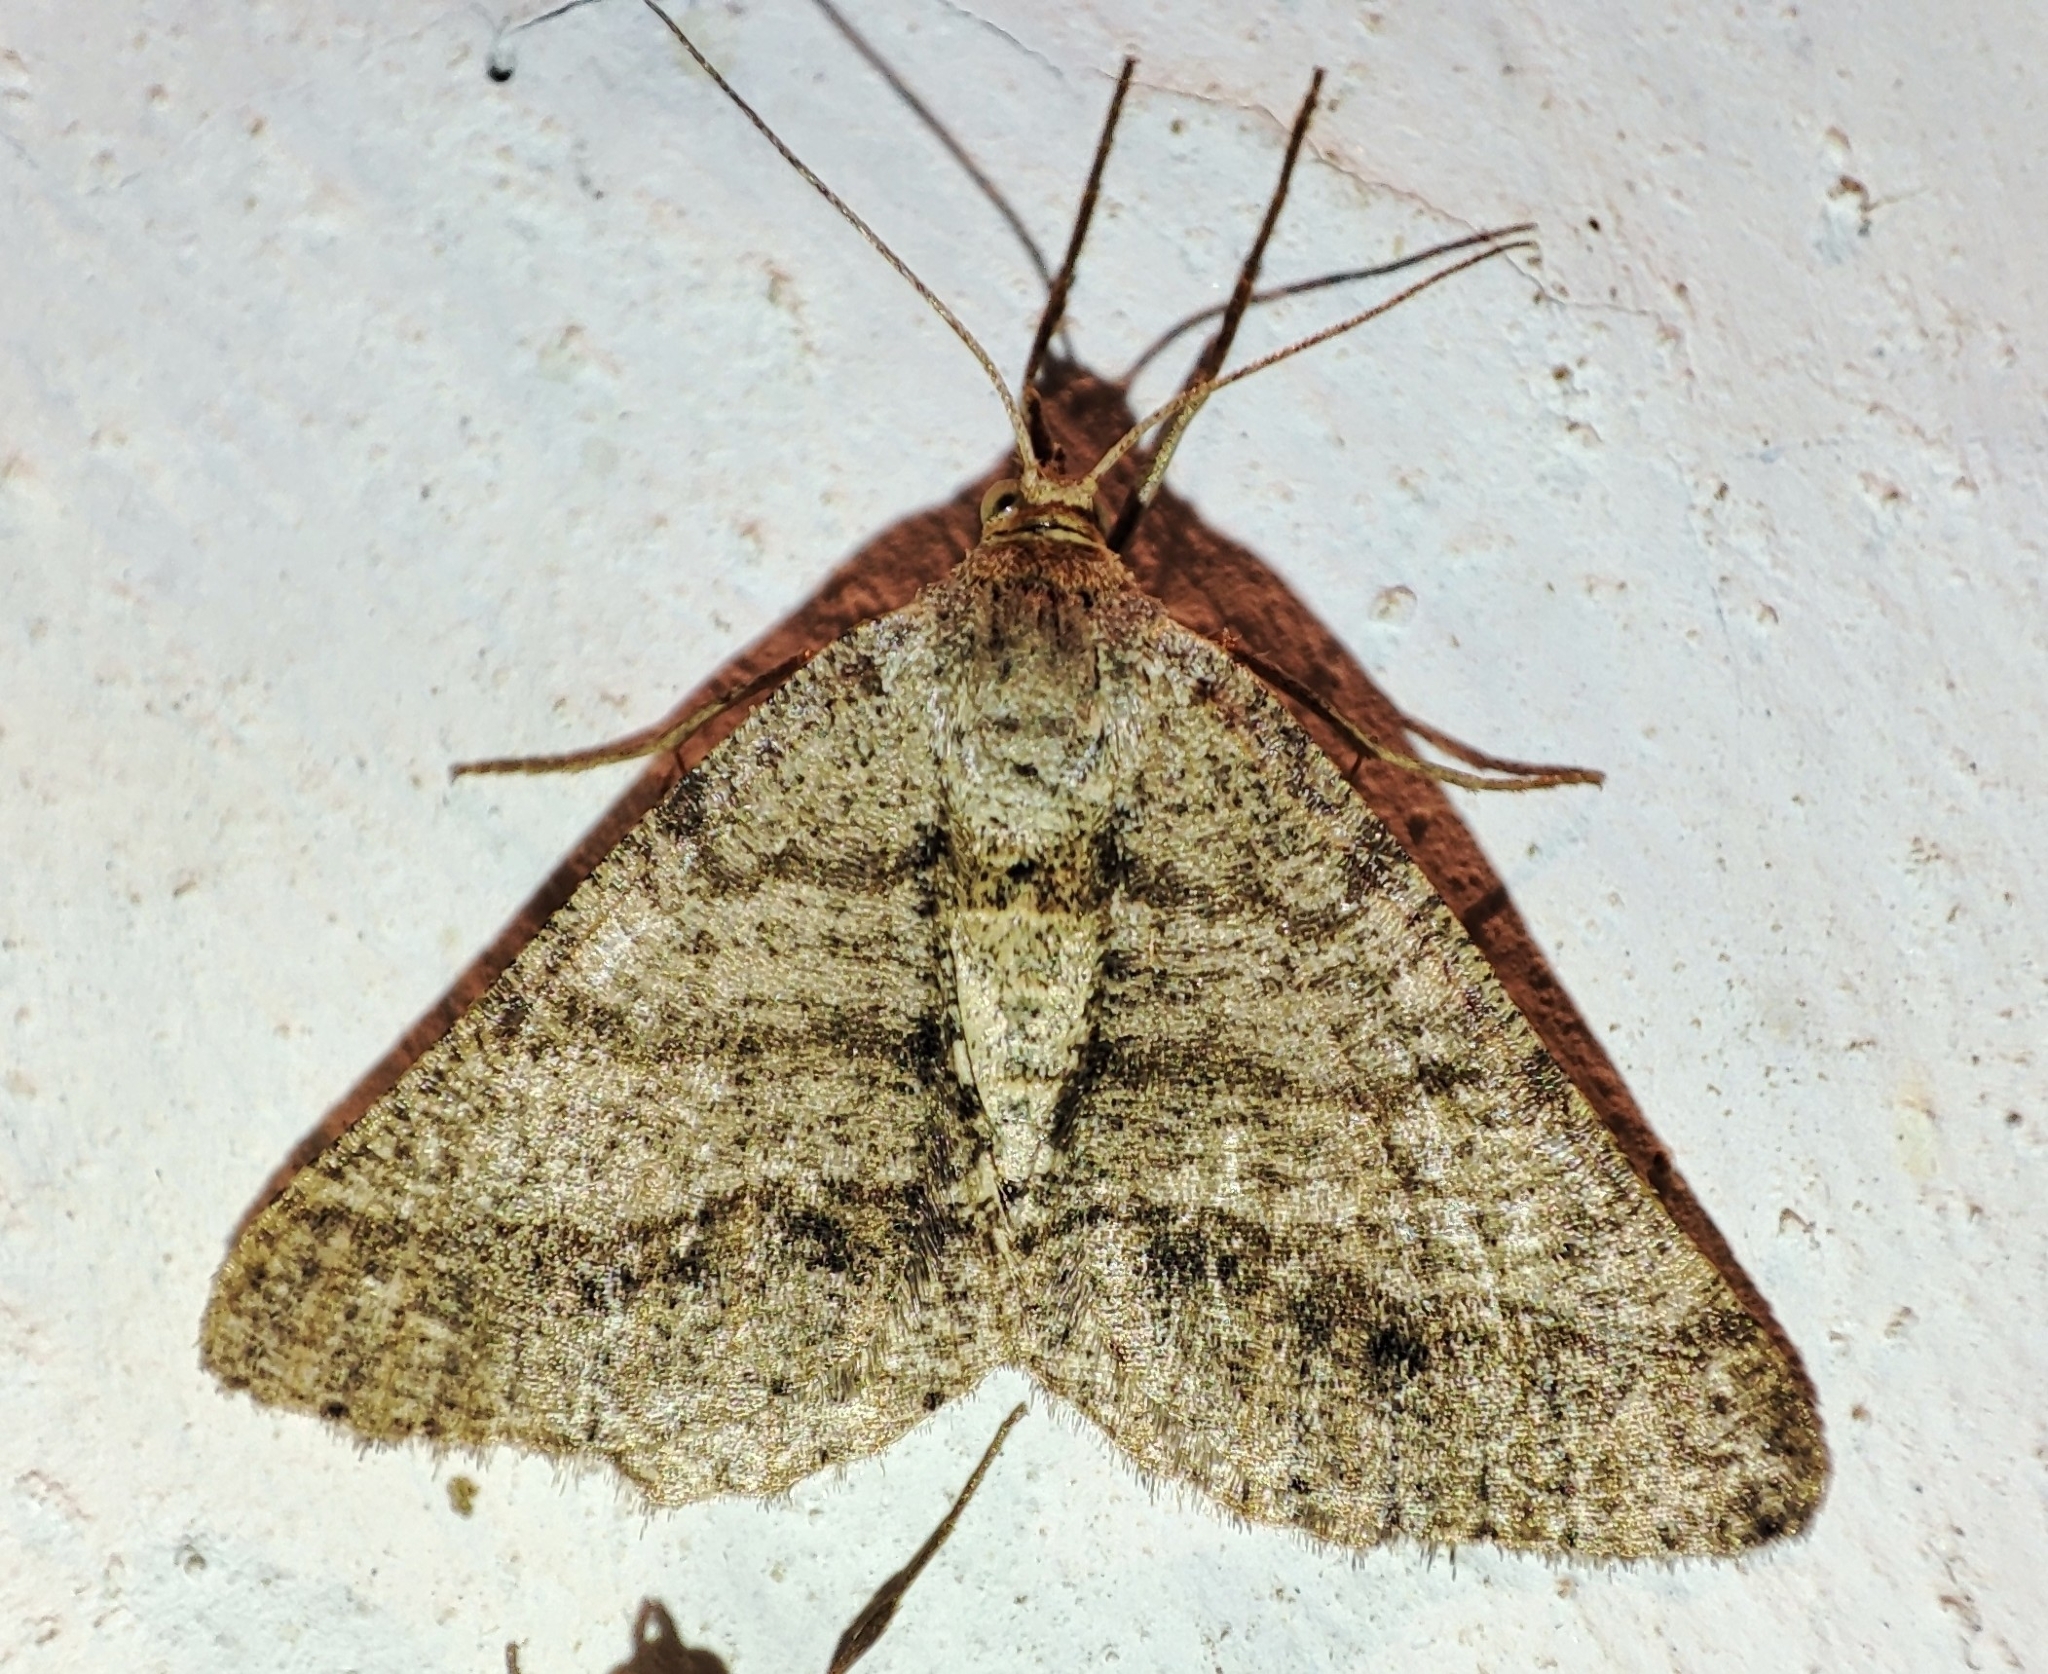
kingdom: Animalia
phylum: Arthropoda
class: Insecta
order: Lepidoptera
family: Geometridae
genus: Tephrina
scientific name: Tephrina murinaria
